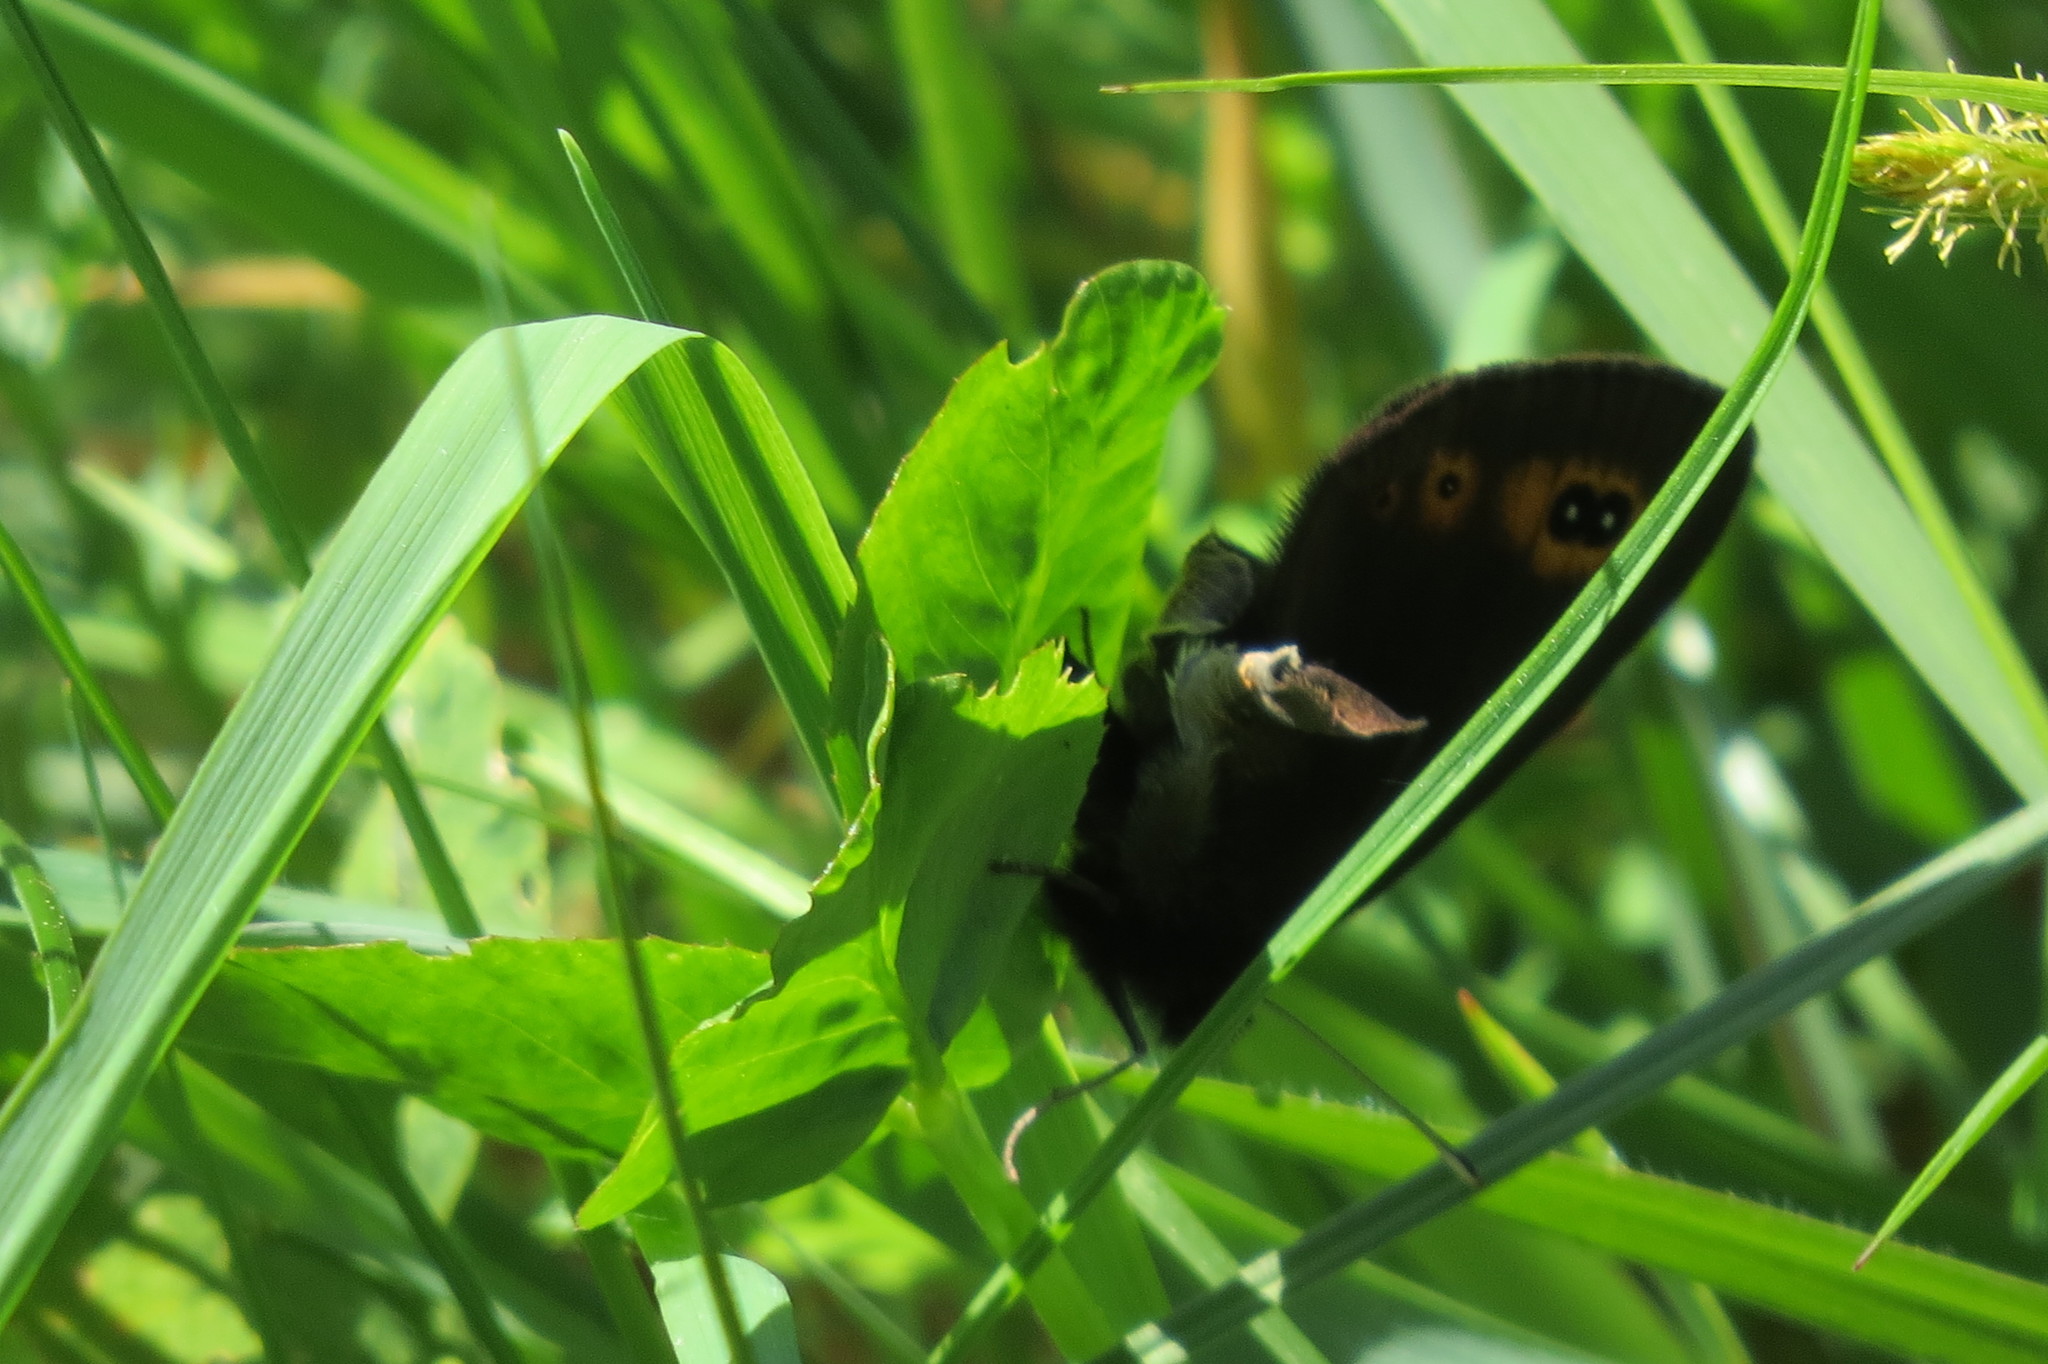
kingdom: Animalia
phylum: Arthropoda
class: Insecta
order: Lepidoptera
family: Nymphalidae
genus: Erebia
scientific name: Erebia medusa
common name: Woodland ringlet
